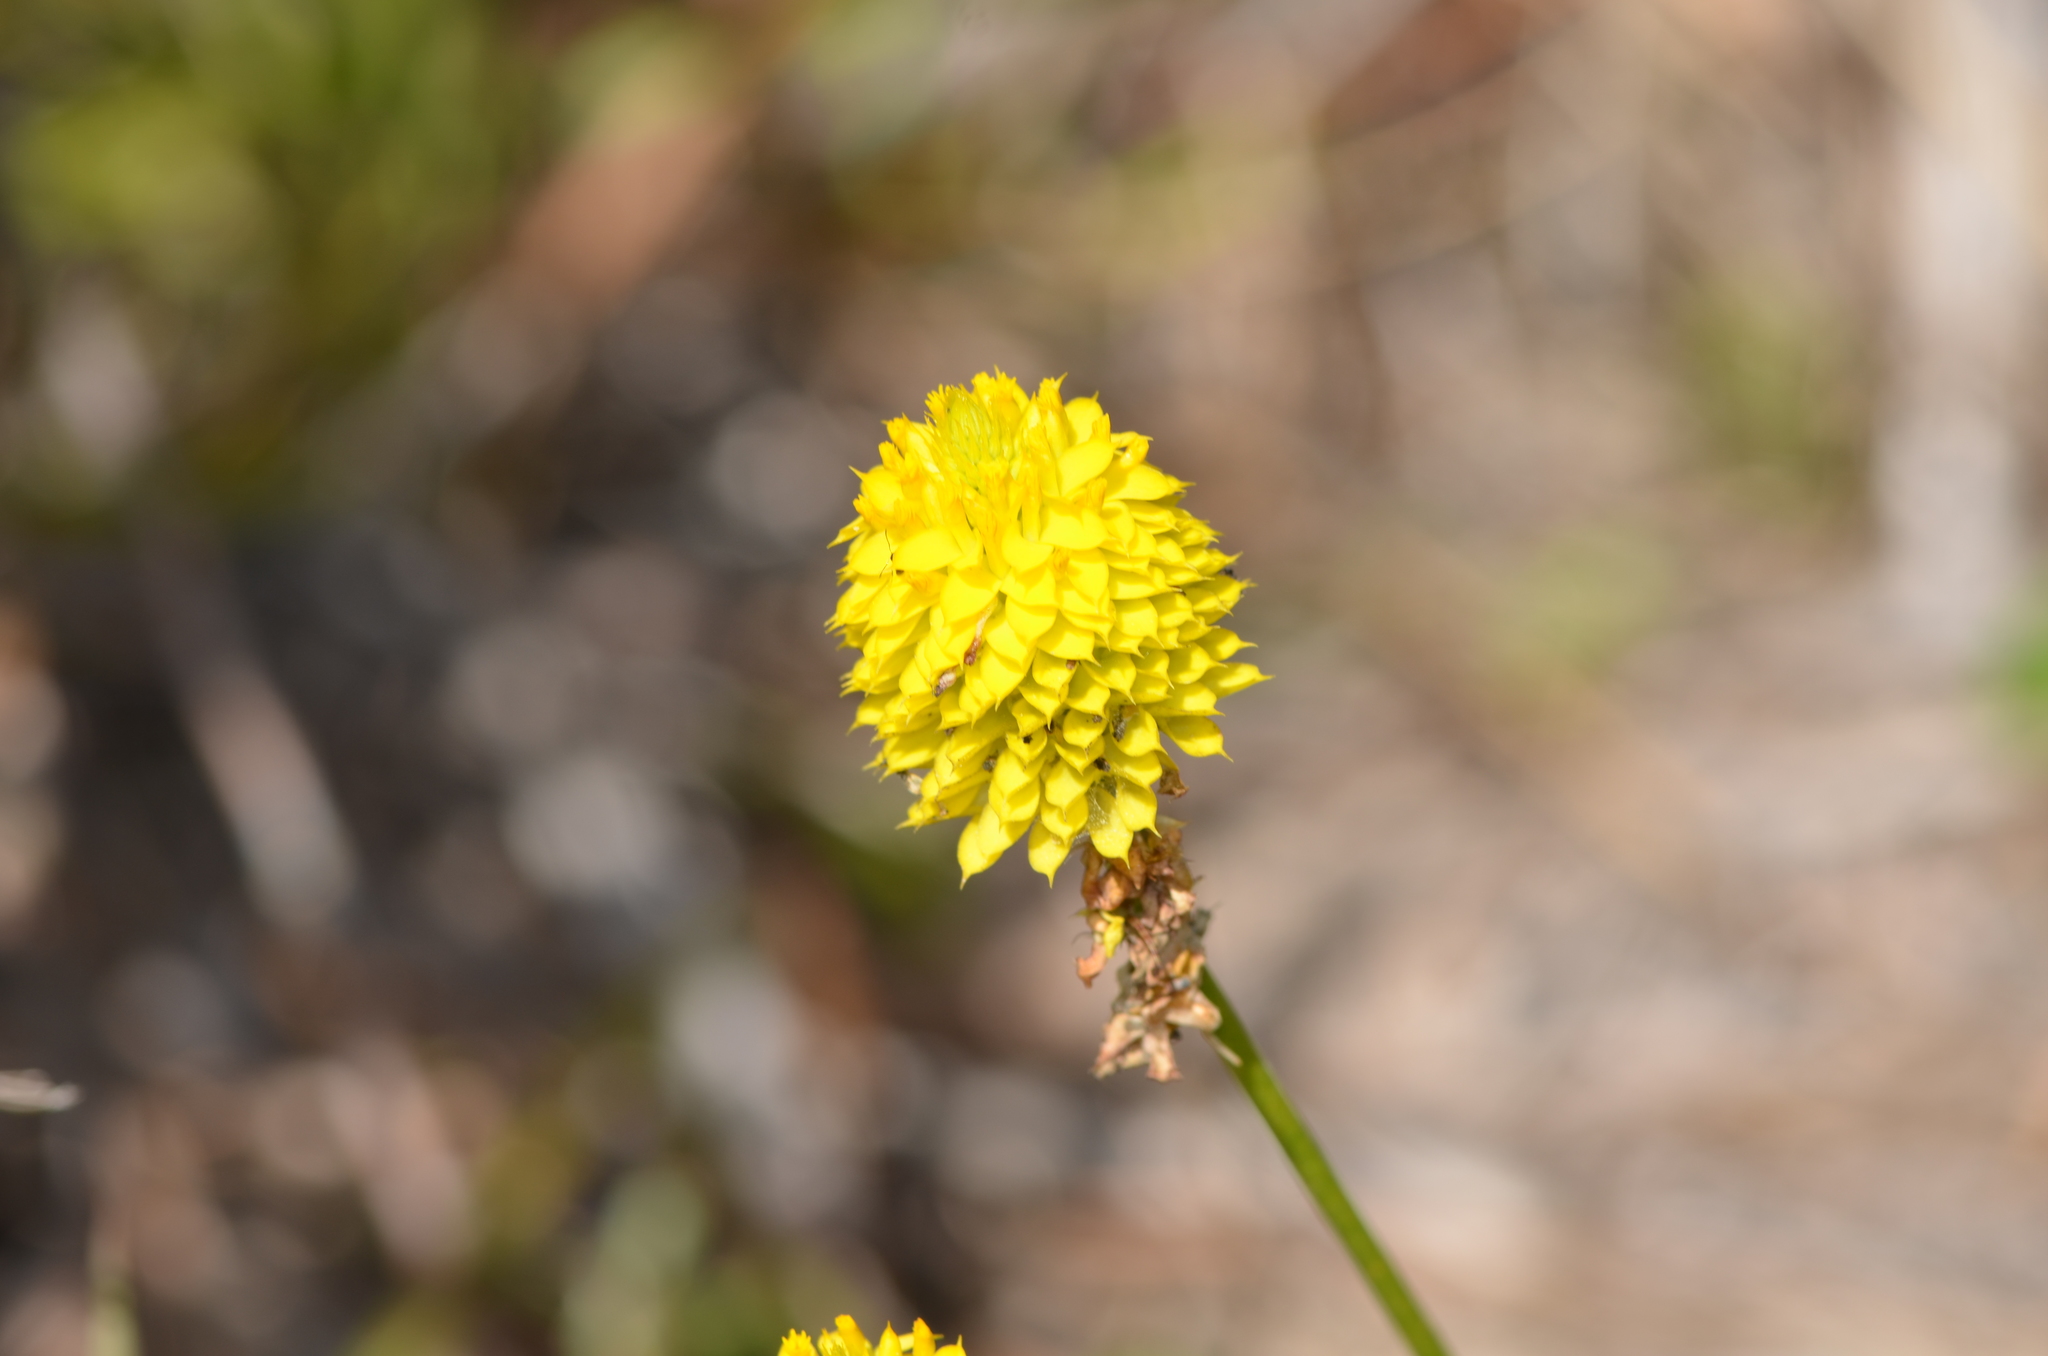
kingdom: Plantae
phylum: Tracheophyta
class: Magnoliopsida
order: Fabales
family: Polygalaceae
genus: Polygala
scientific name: Polygala rugelii
